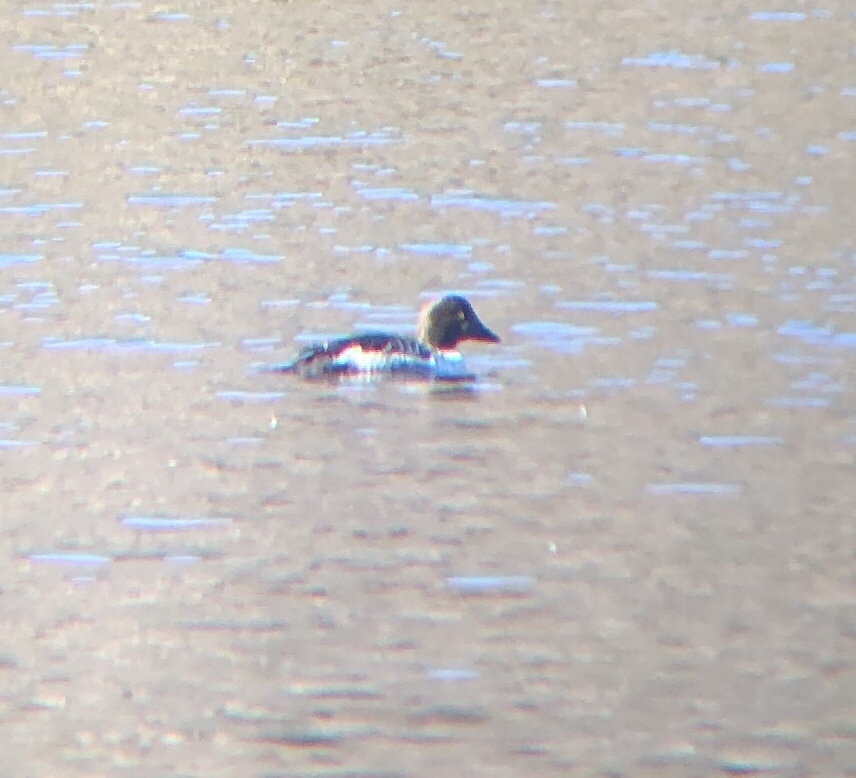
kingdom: Animalia
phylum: Chordata
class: Aves
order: Anseriformes
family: Anatidae
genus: Bucephala
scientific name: Bucephala clangula
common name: Common goldeneye
